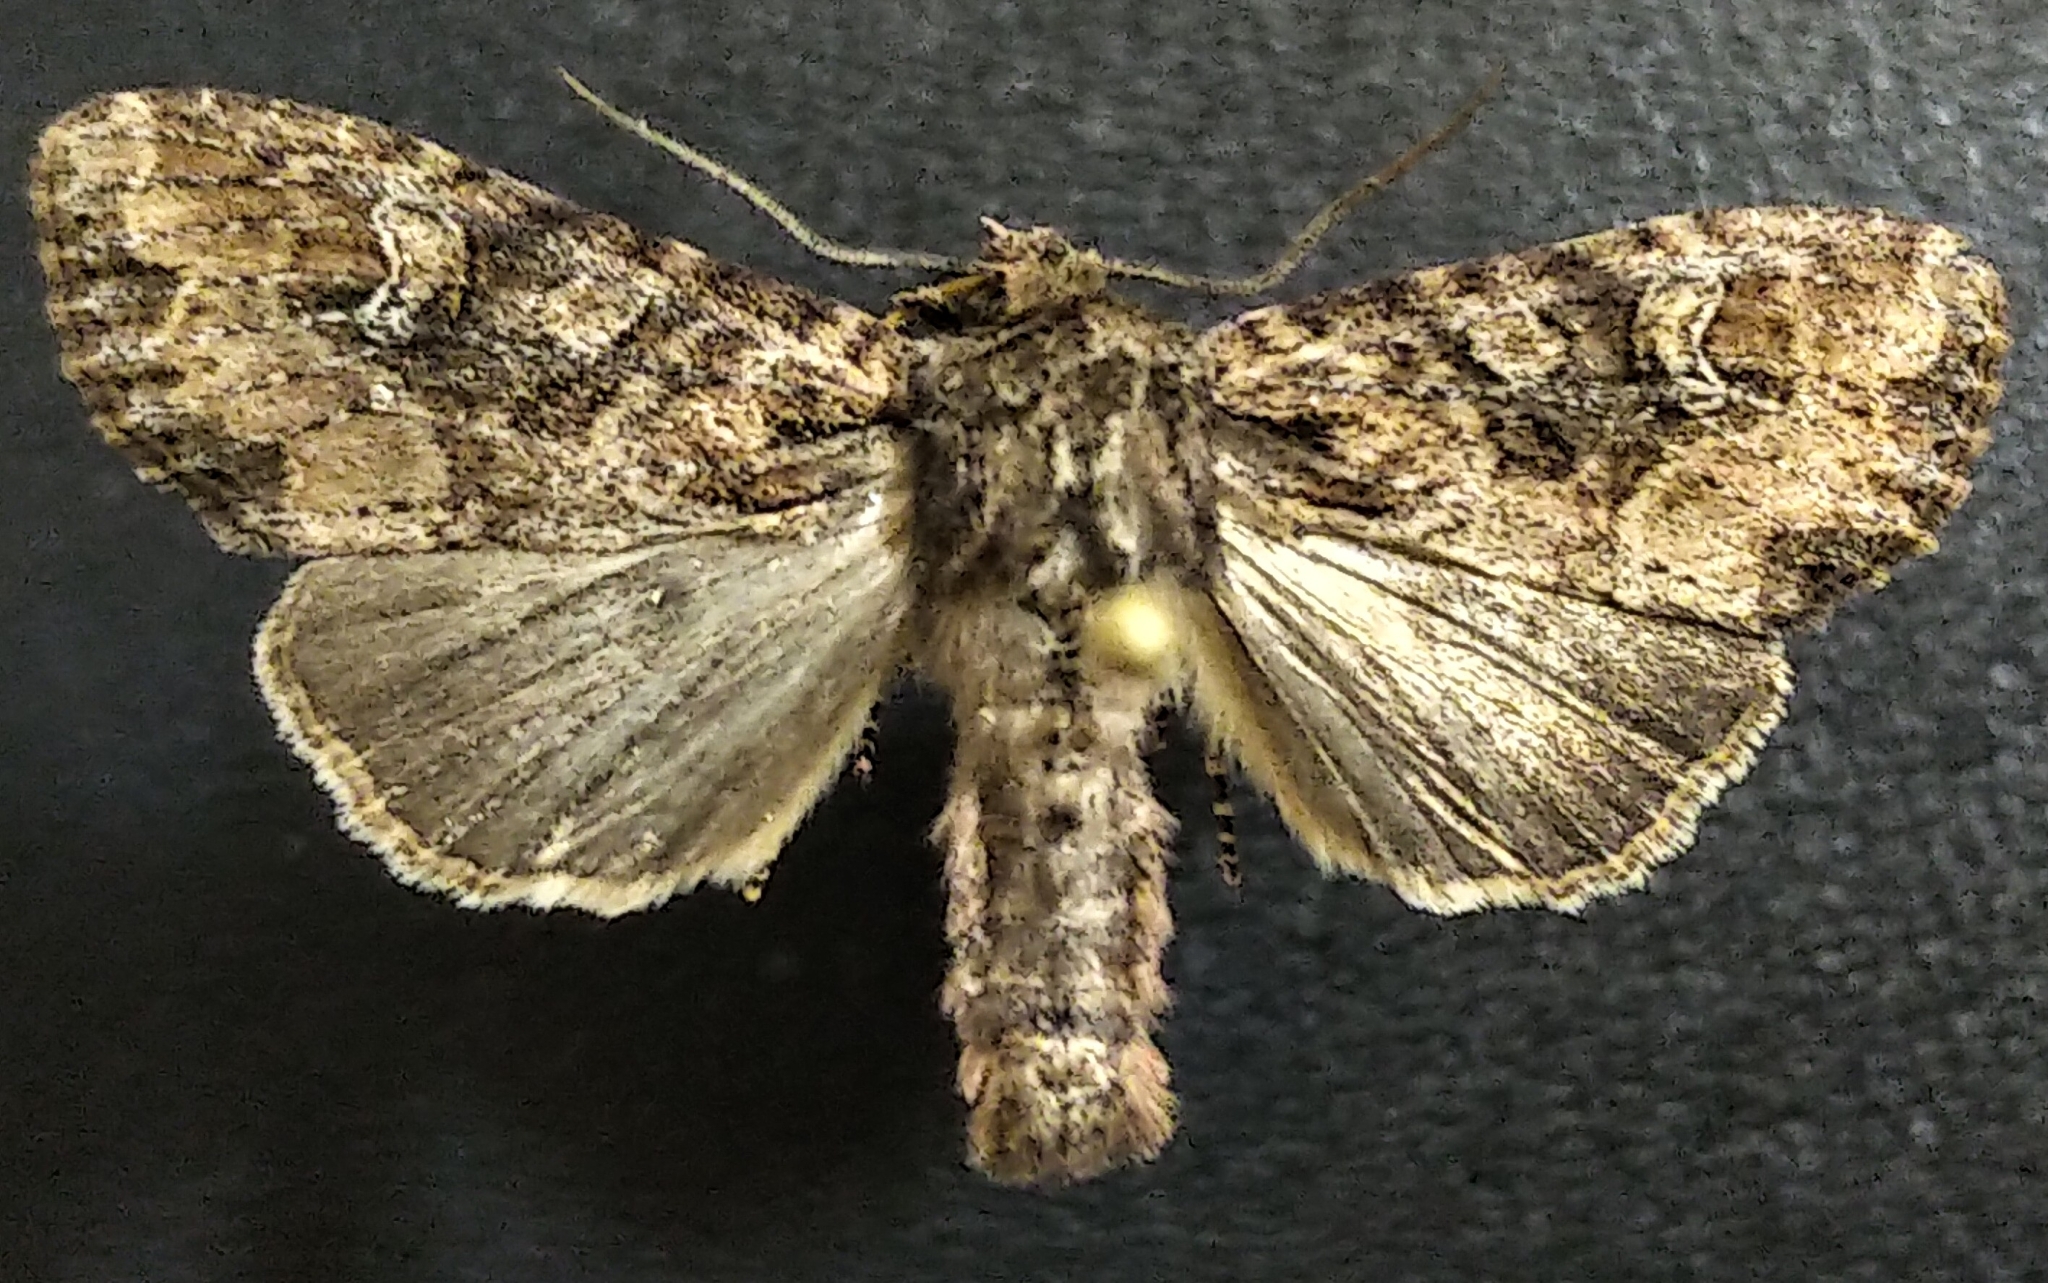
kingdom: Animalia
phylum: Arthropoda
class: Insecta
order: Lepidoptera
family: Noctuidae
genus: Apamea
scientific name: Apamea unanimis
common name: Small clouded brindle
